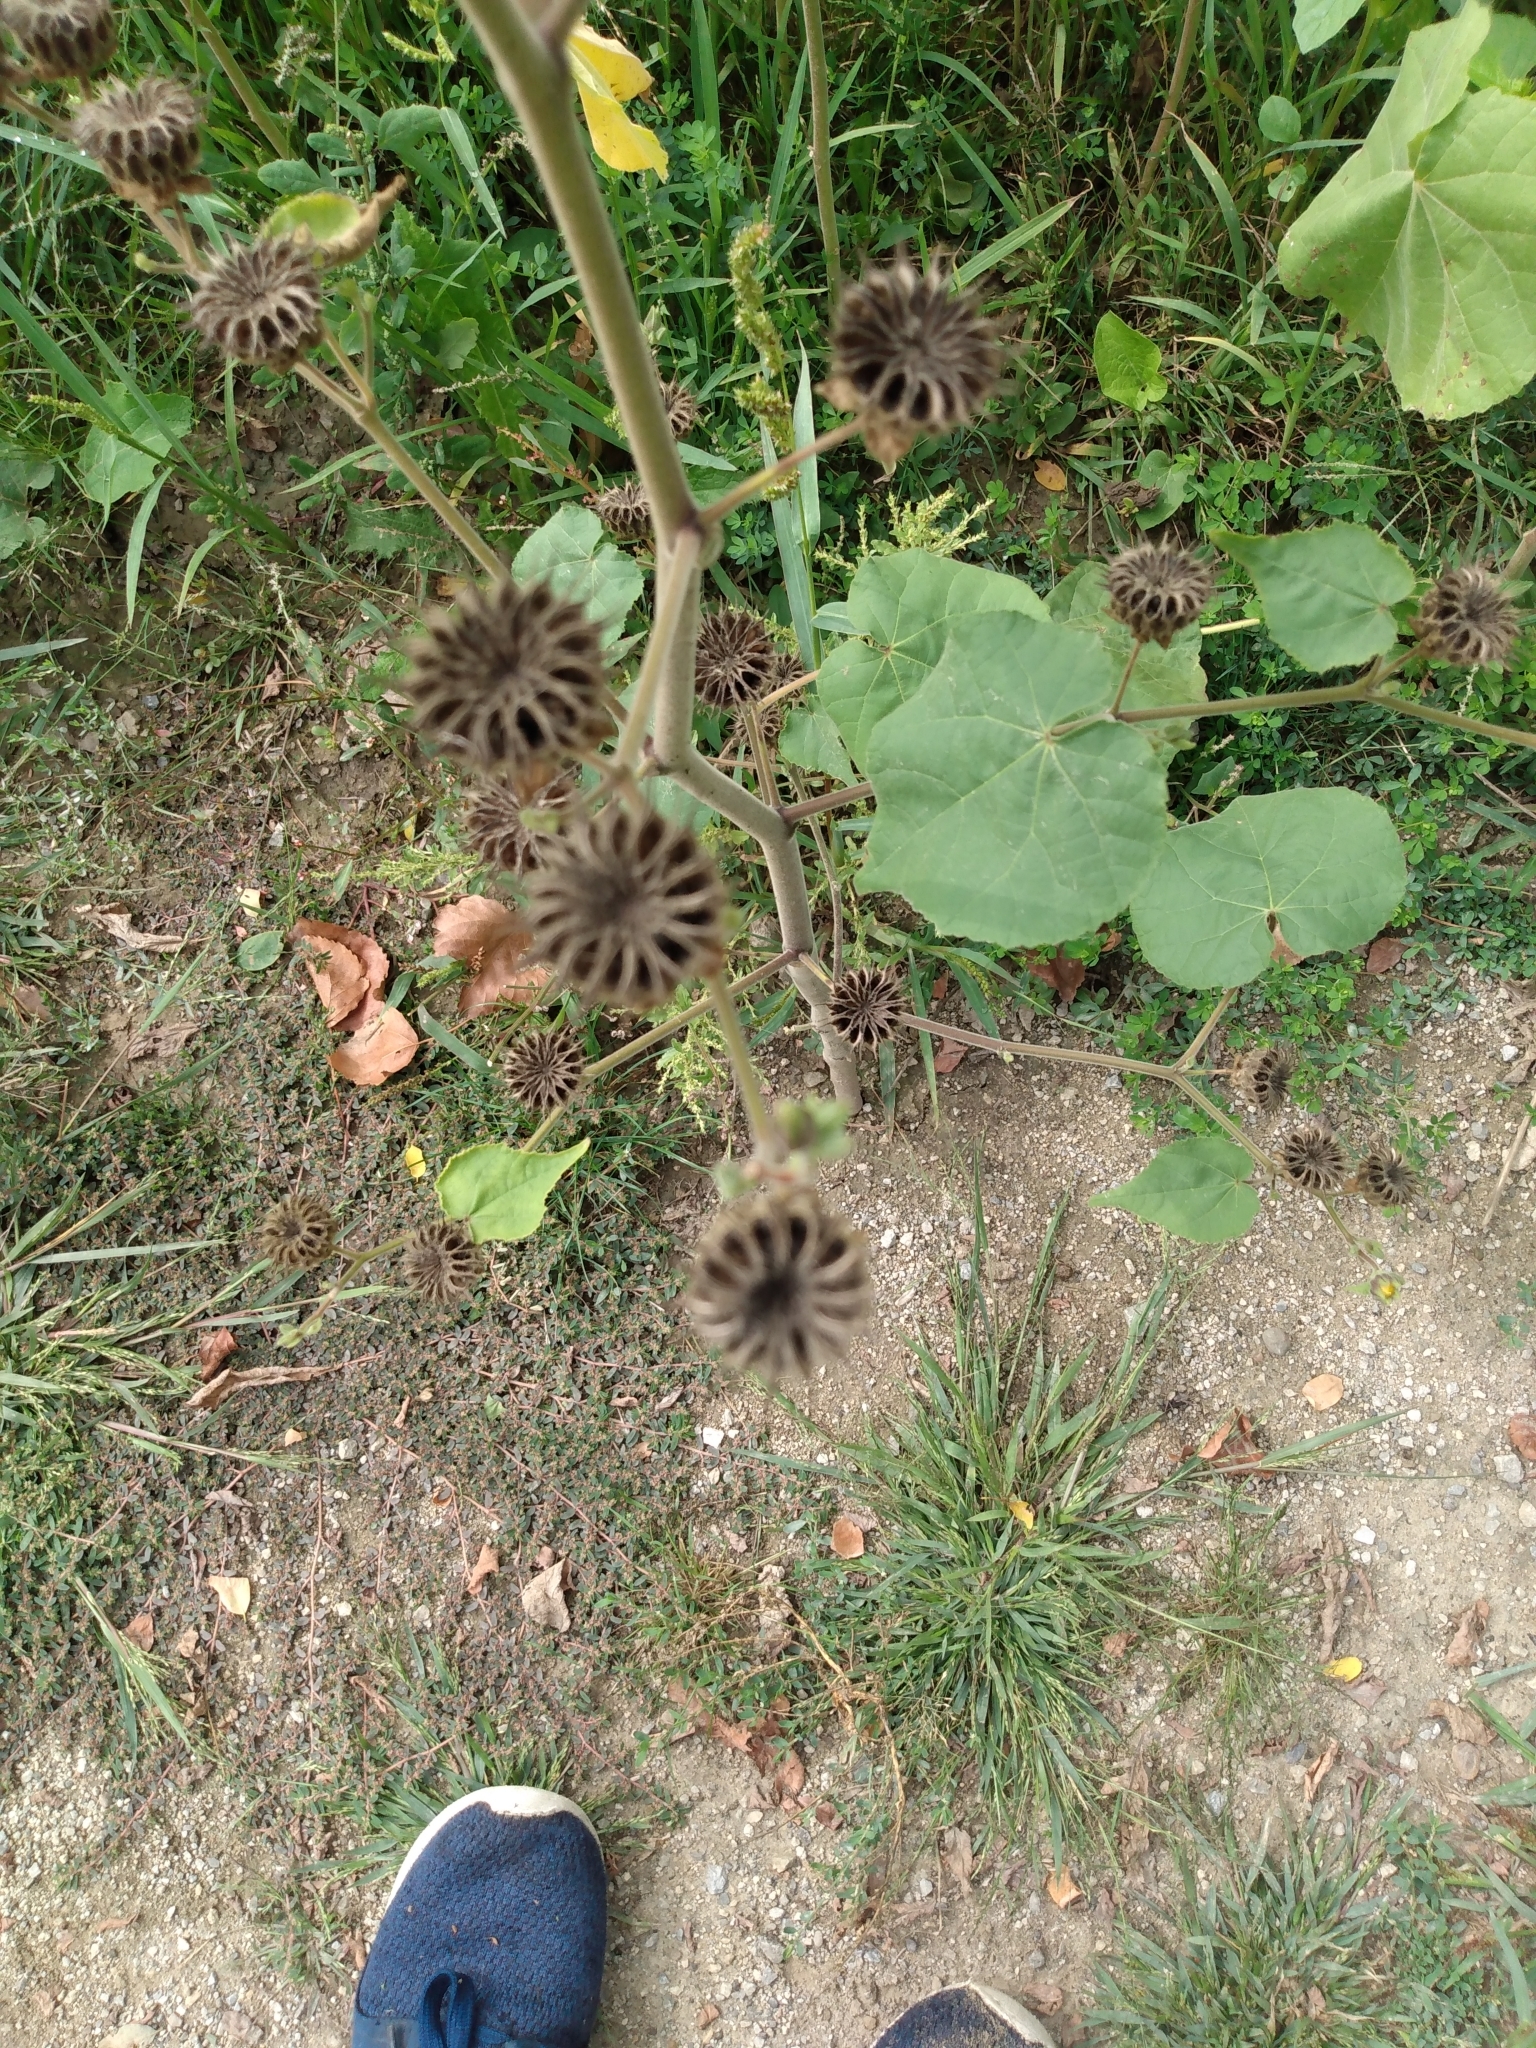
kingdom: Plantae
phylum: Tracheophyta
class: Magnoliopsida
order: Malvales
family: Malvaceae
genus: Abutilon
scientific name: Abutilon theophrasti
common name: Velvetleaf
